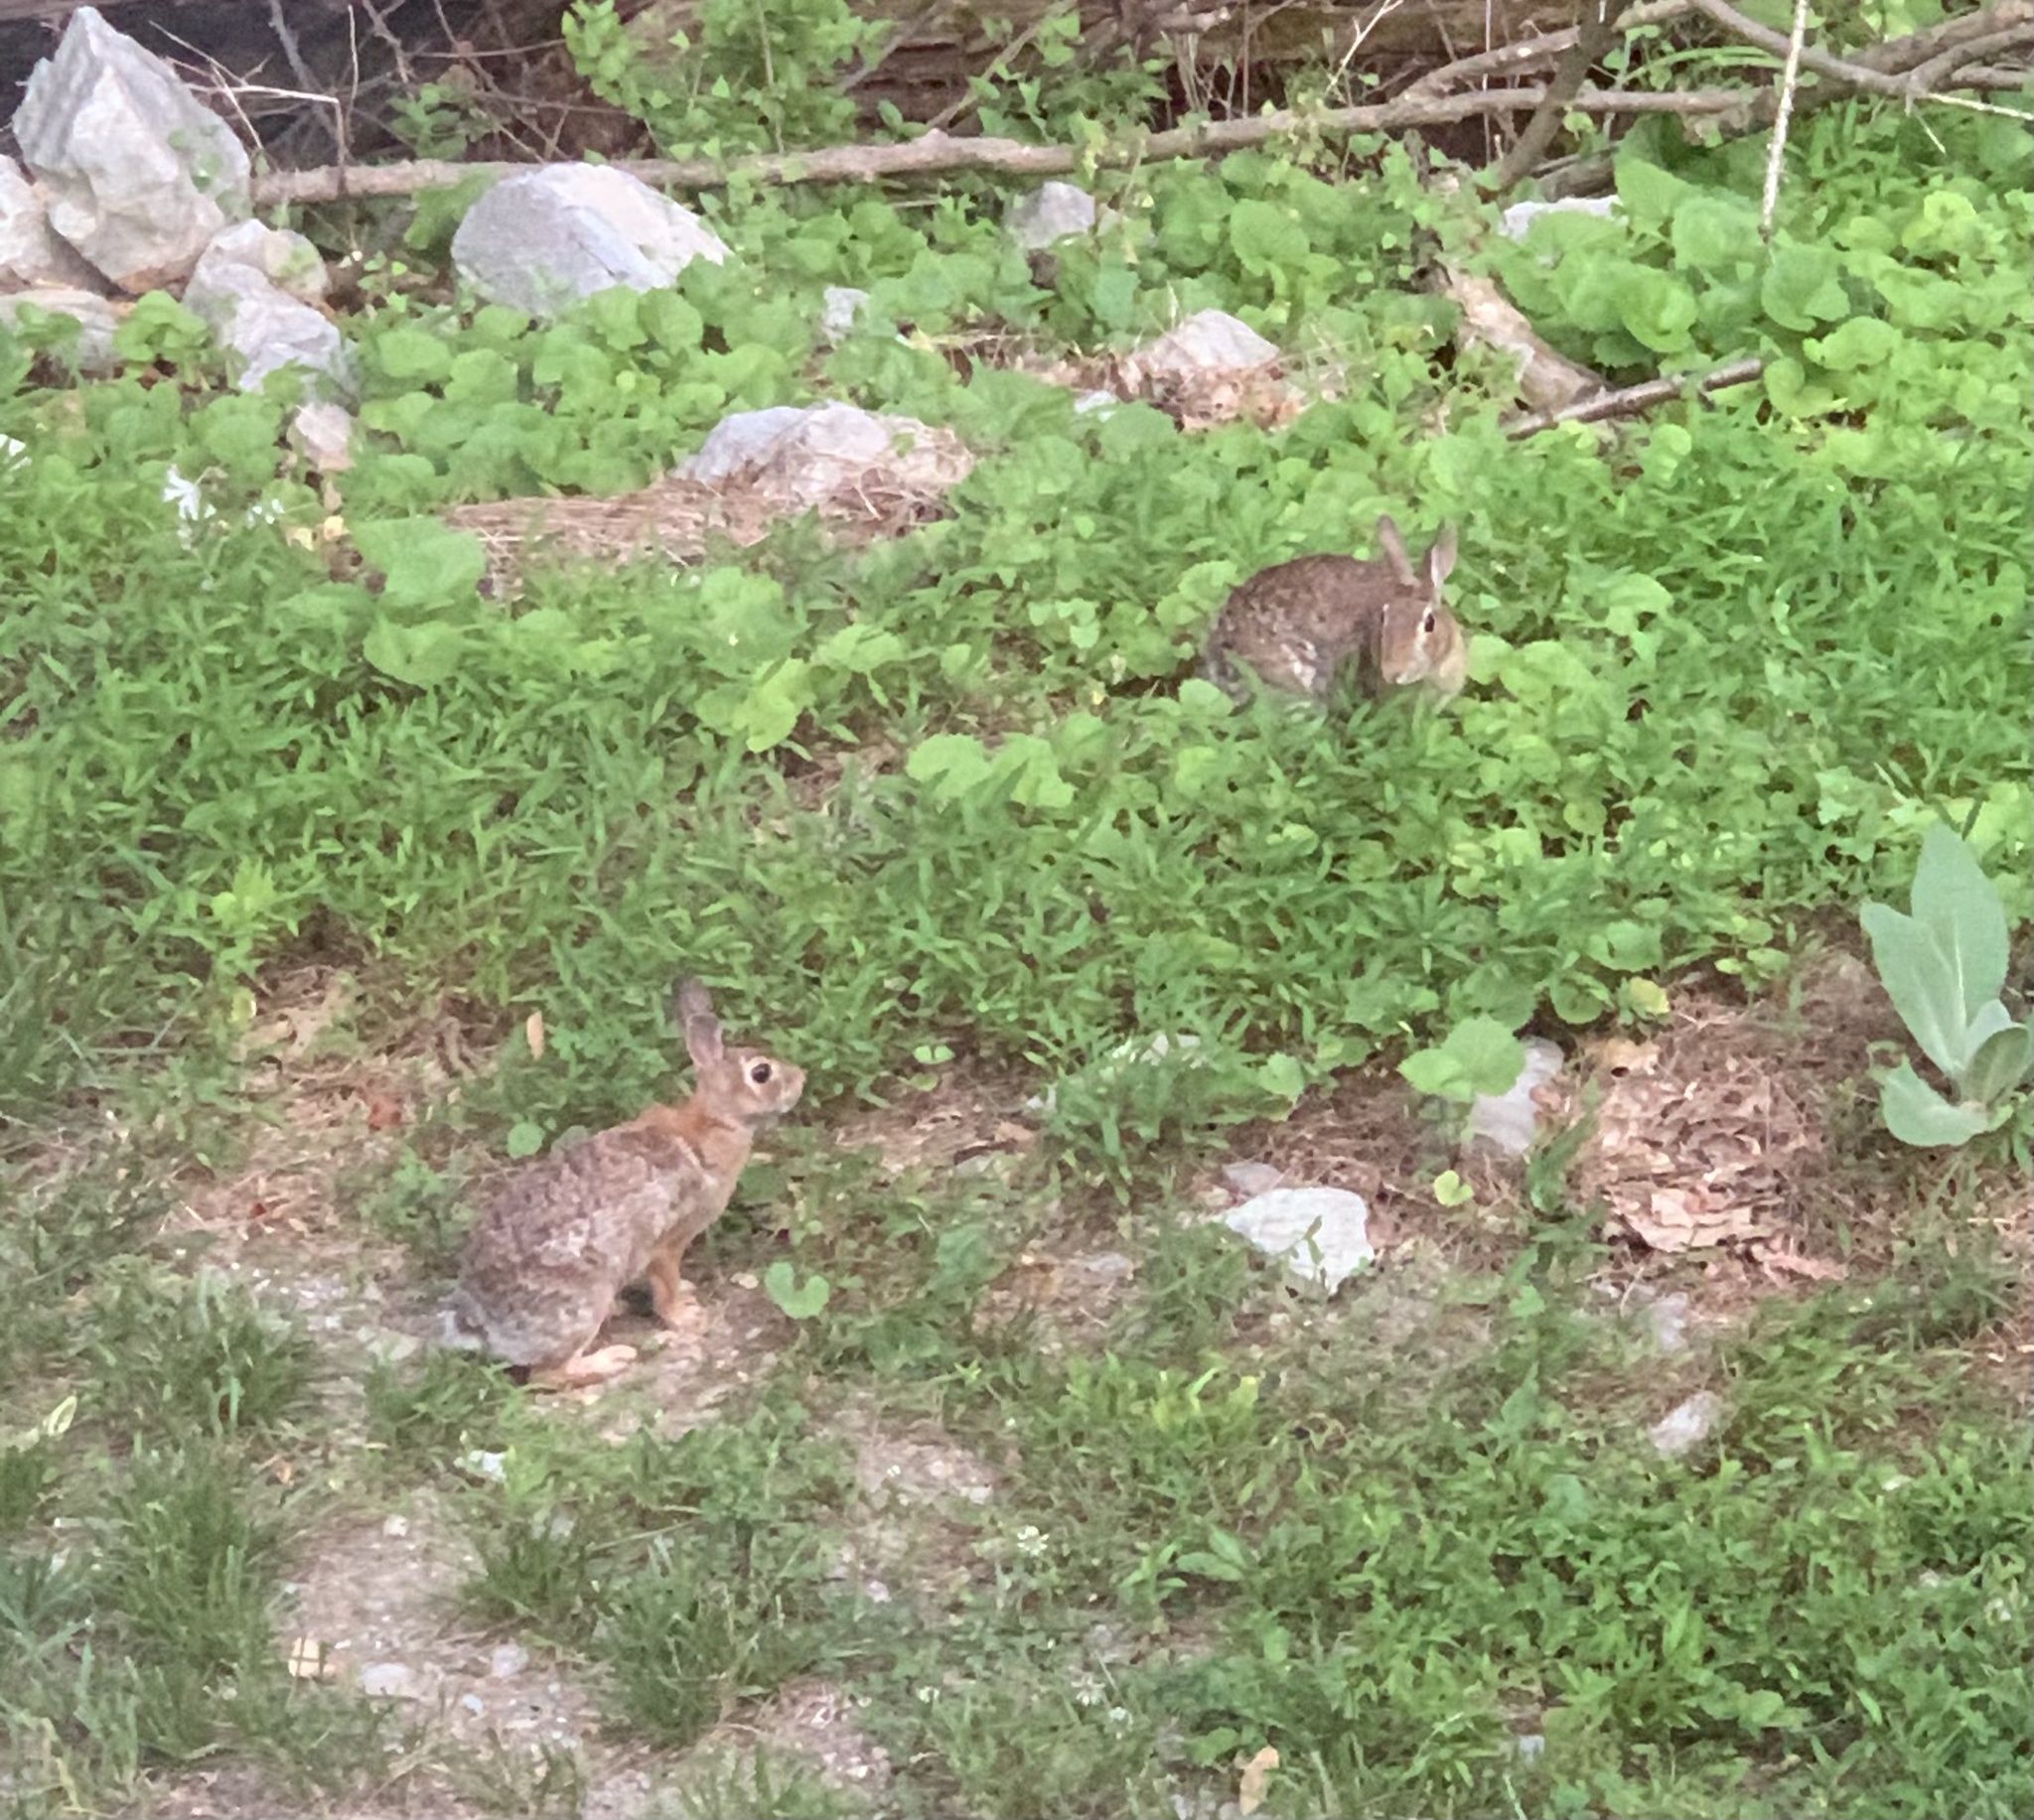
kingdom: Animalia
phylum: Chordata
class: Mammalia
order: Lagomorpha
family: Leporidae
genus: Sylvilagus
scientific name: Sylvilagus floridanus
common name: Eastern cottontail
